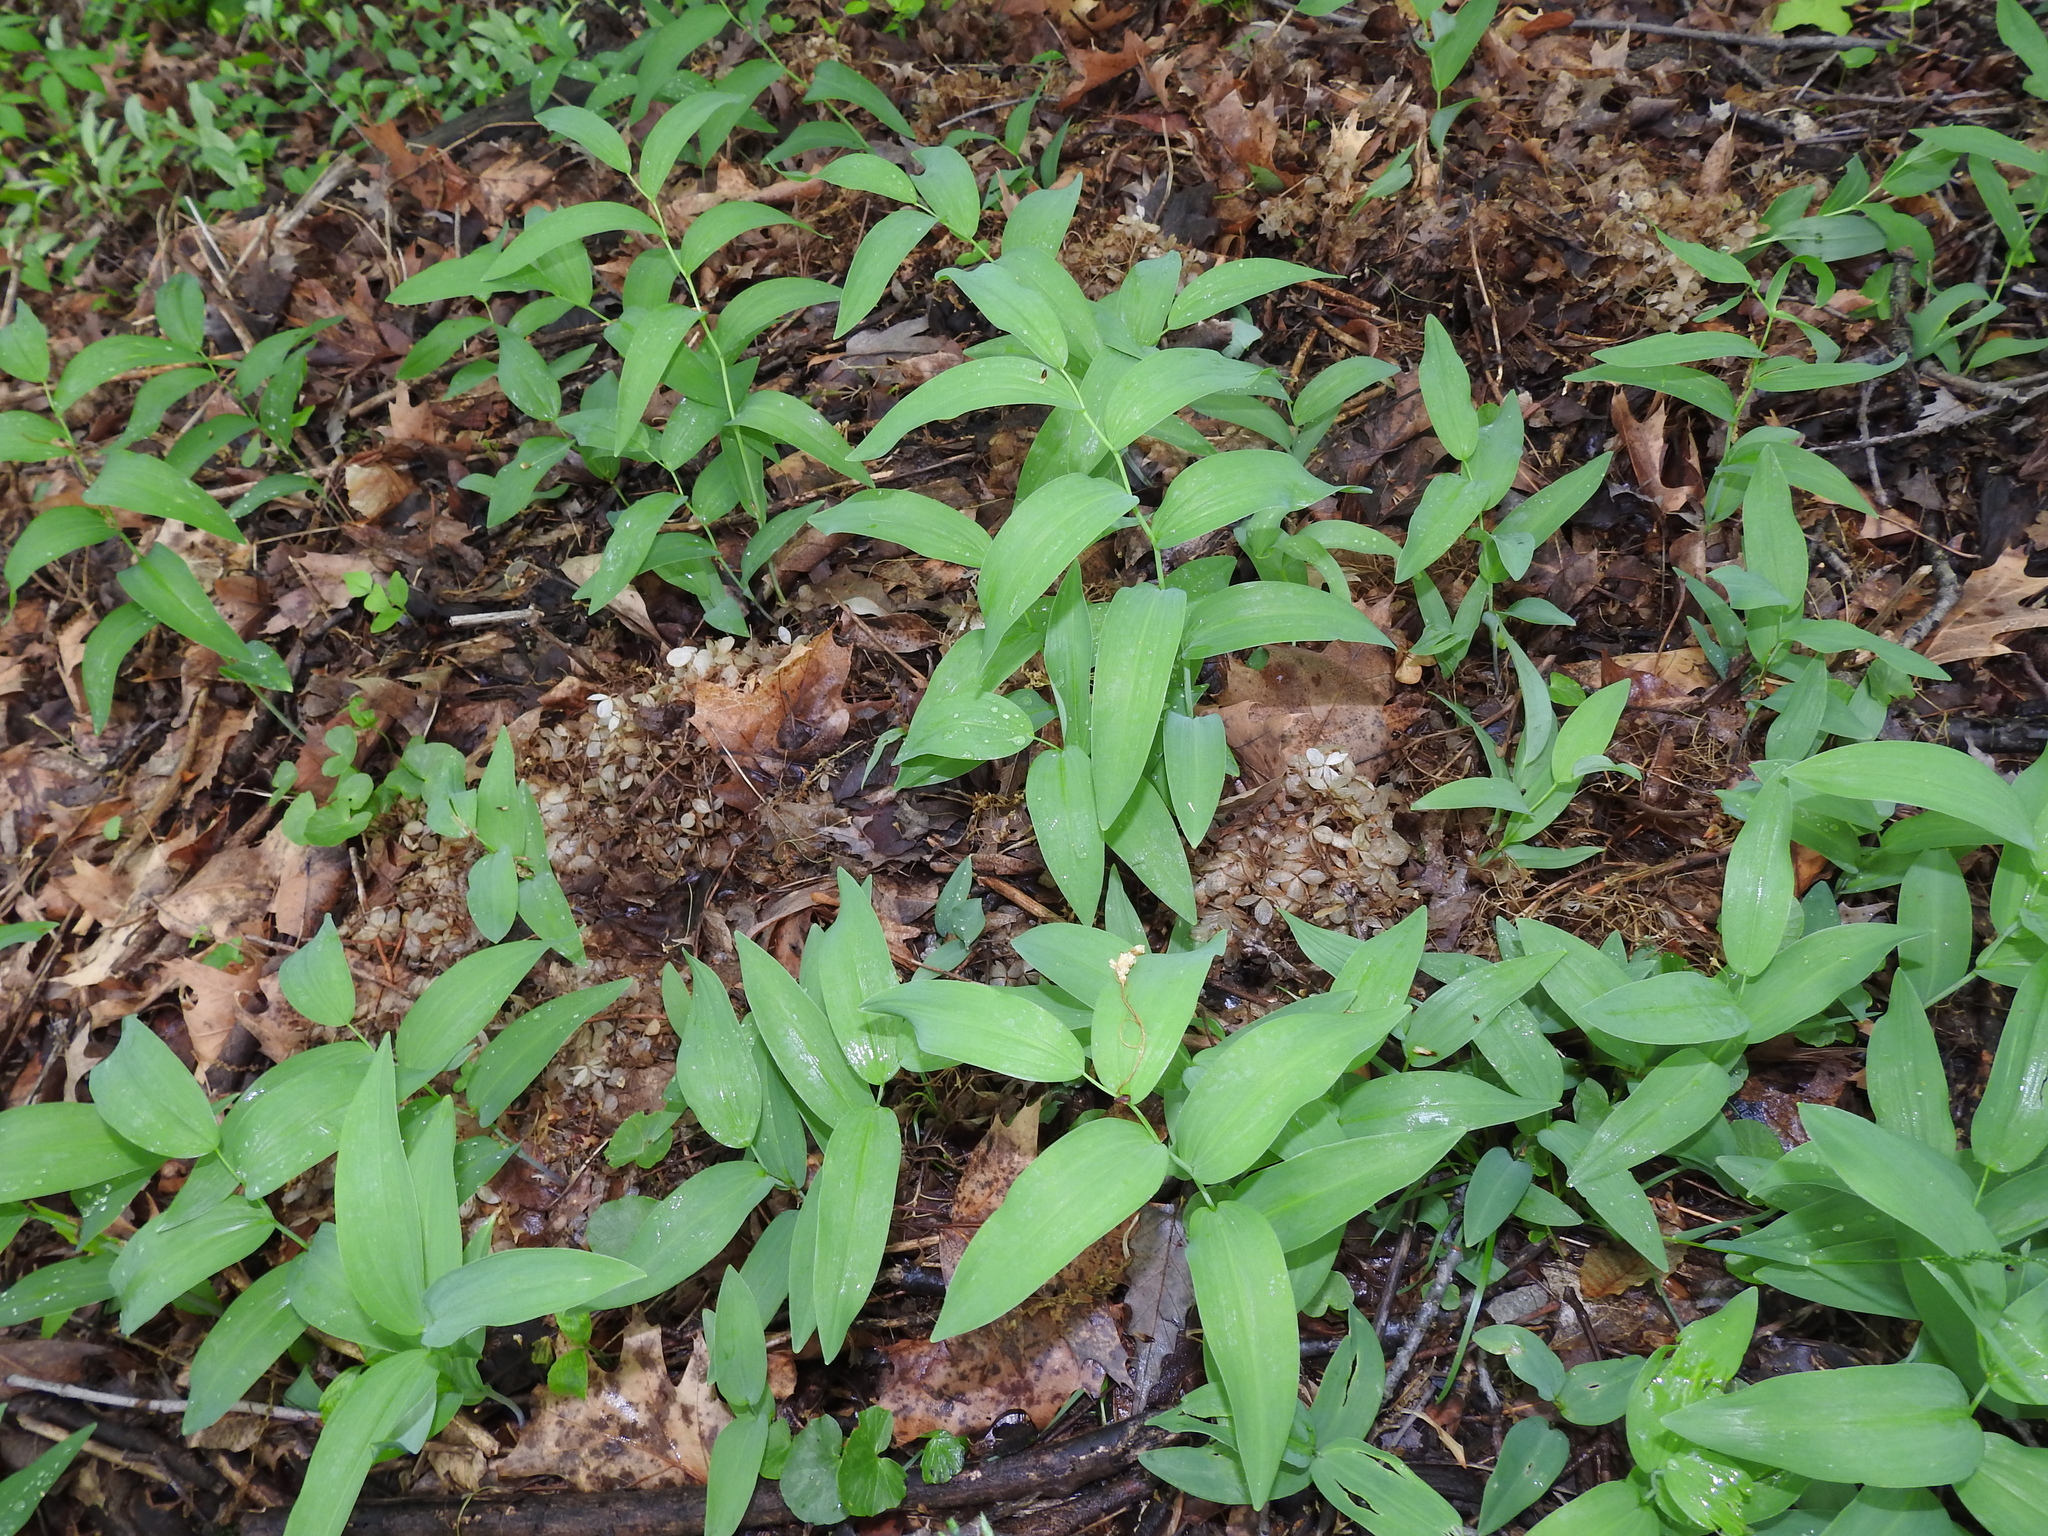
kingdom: Plantae
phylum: Tracheophyta
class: Liliopsida
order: Asparagales
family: Asparagaceae
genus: Polygonatum
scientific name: Polygonatum biflorum
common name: American solomon's-seal
